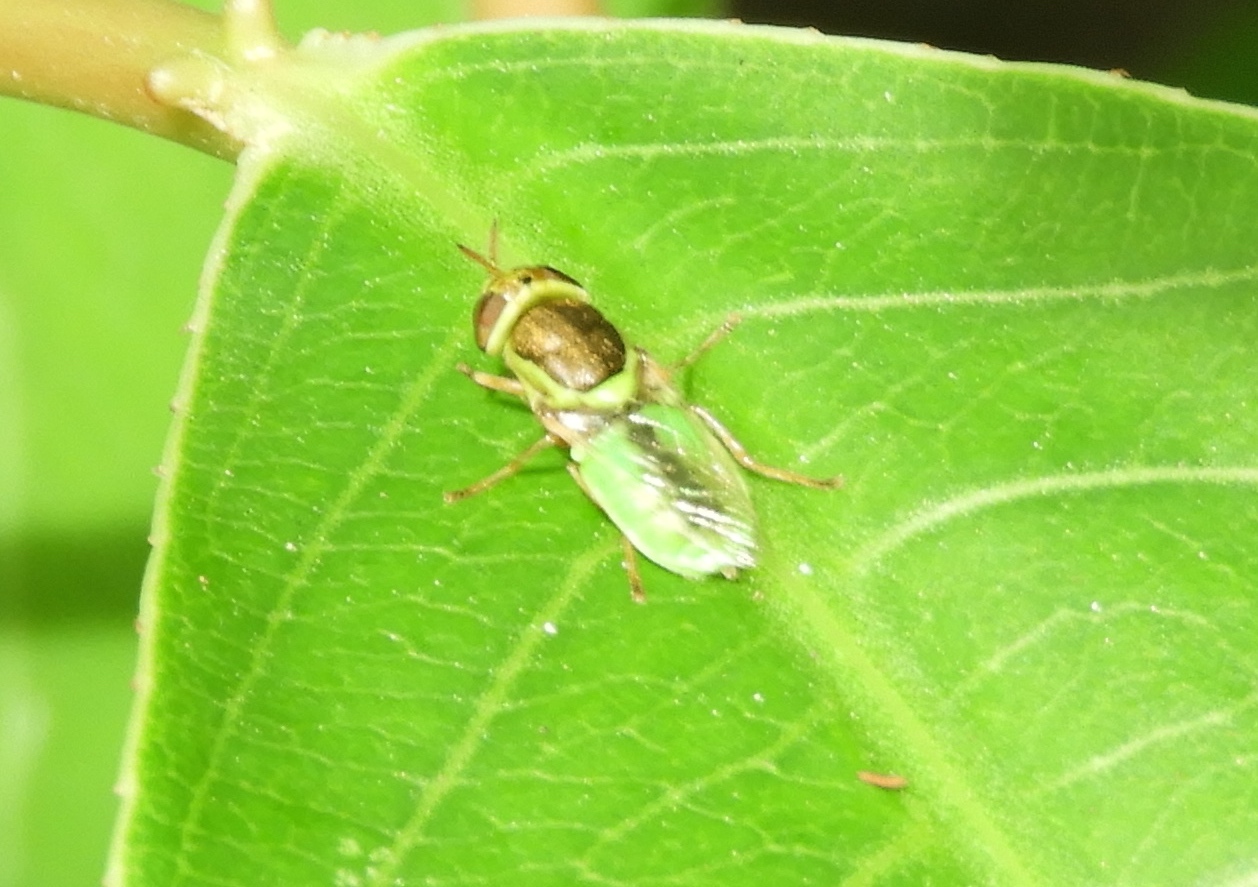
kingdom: Animalia
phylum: Arthropoda
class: Insecta
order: Diptera
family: Stratiomyidae
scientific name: Stratiomyidae
